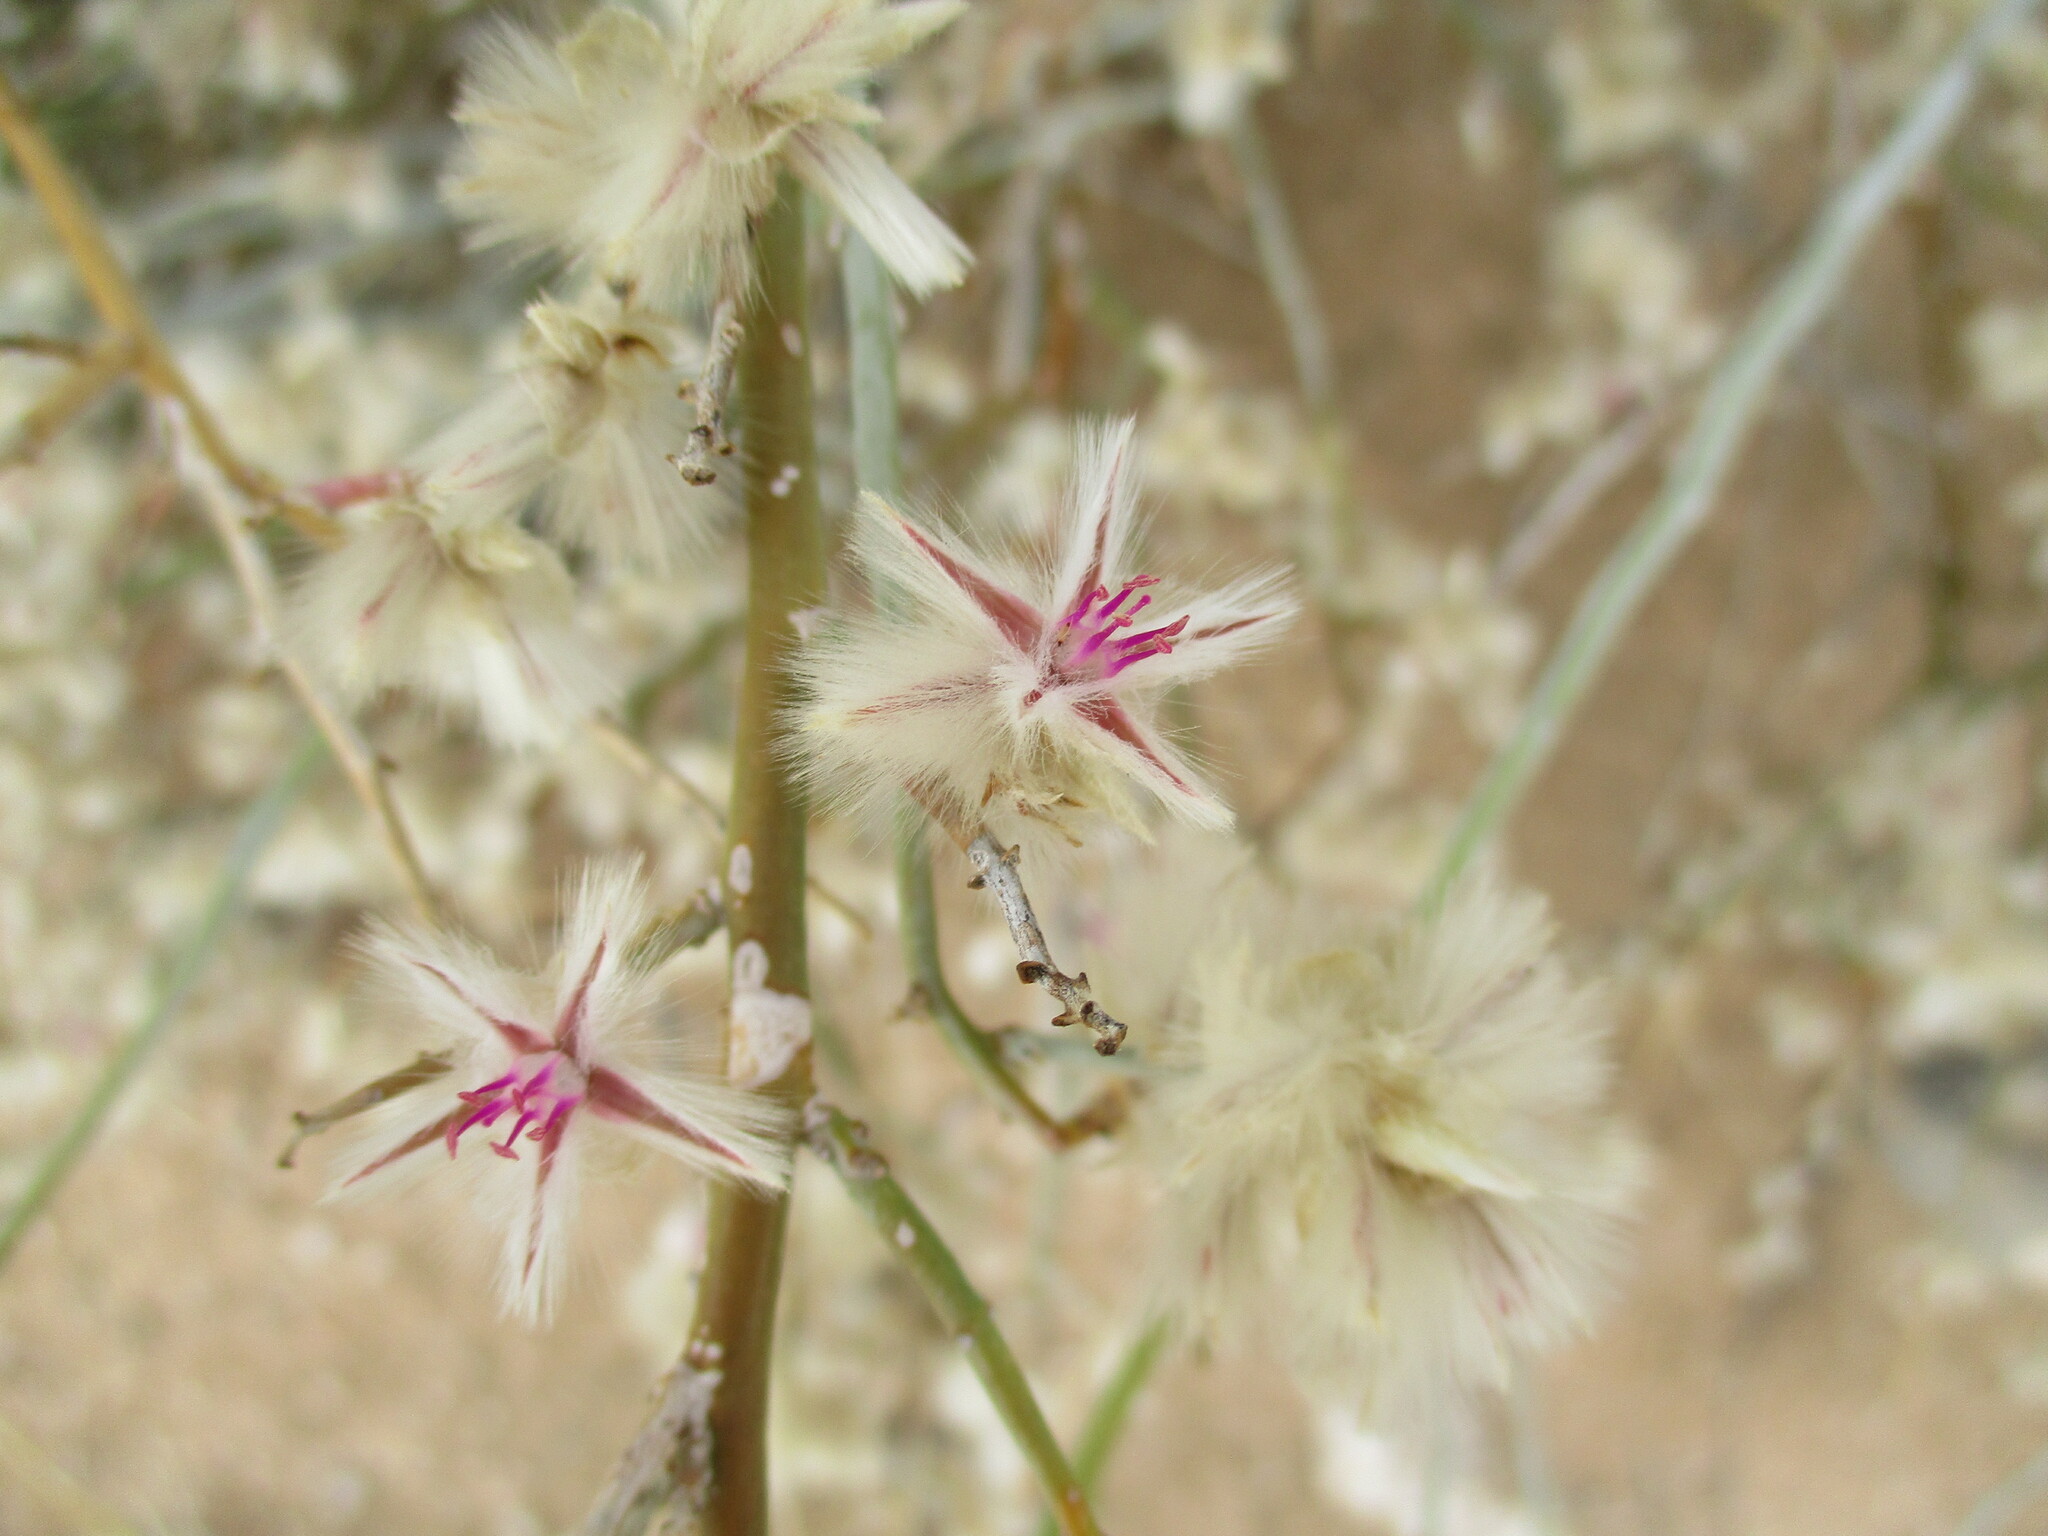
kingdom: Plantae
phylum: Tracheophyta
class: Magnoliopsida
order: Caryophyllales
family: Amaranthaceae
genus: Calicorema
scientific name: Calicorema capitata
